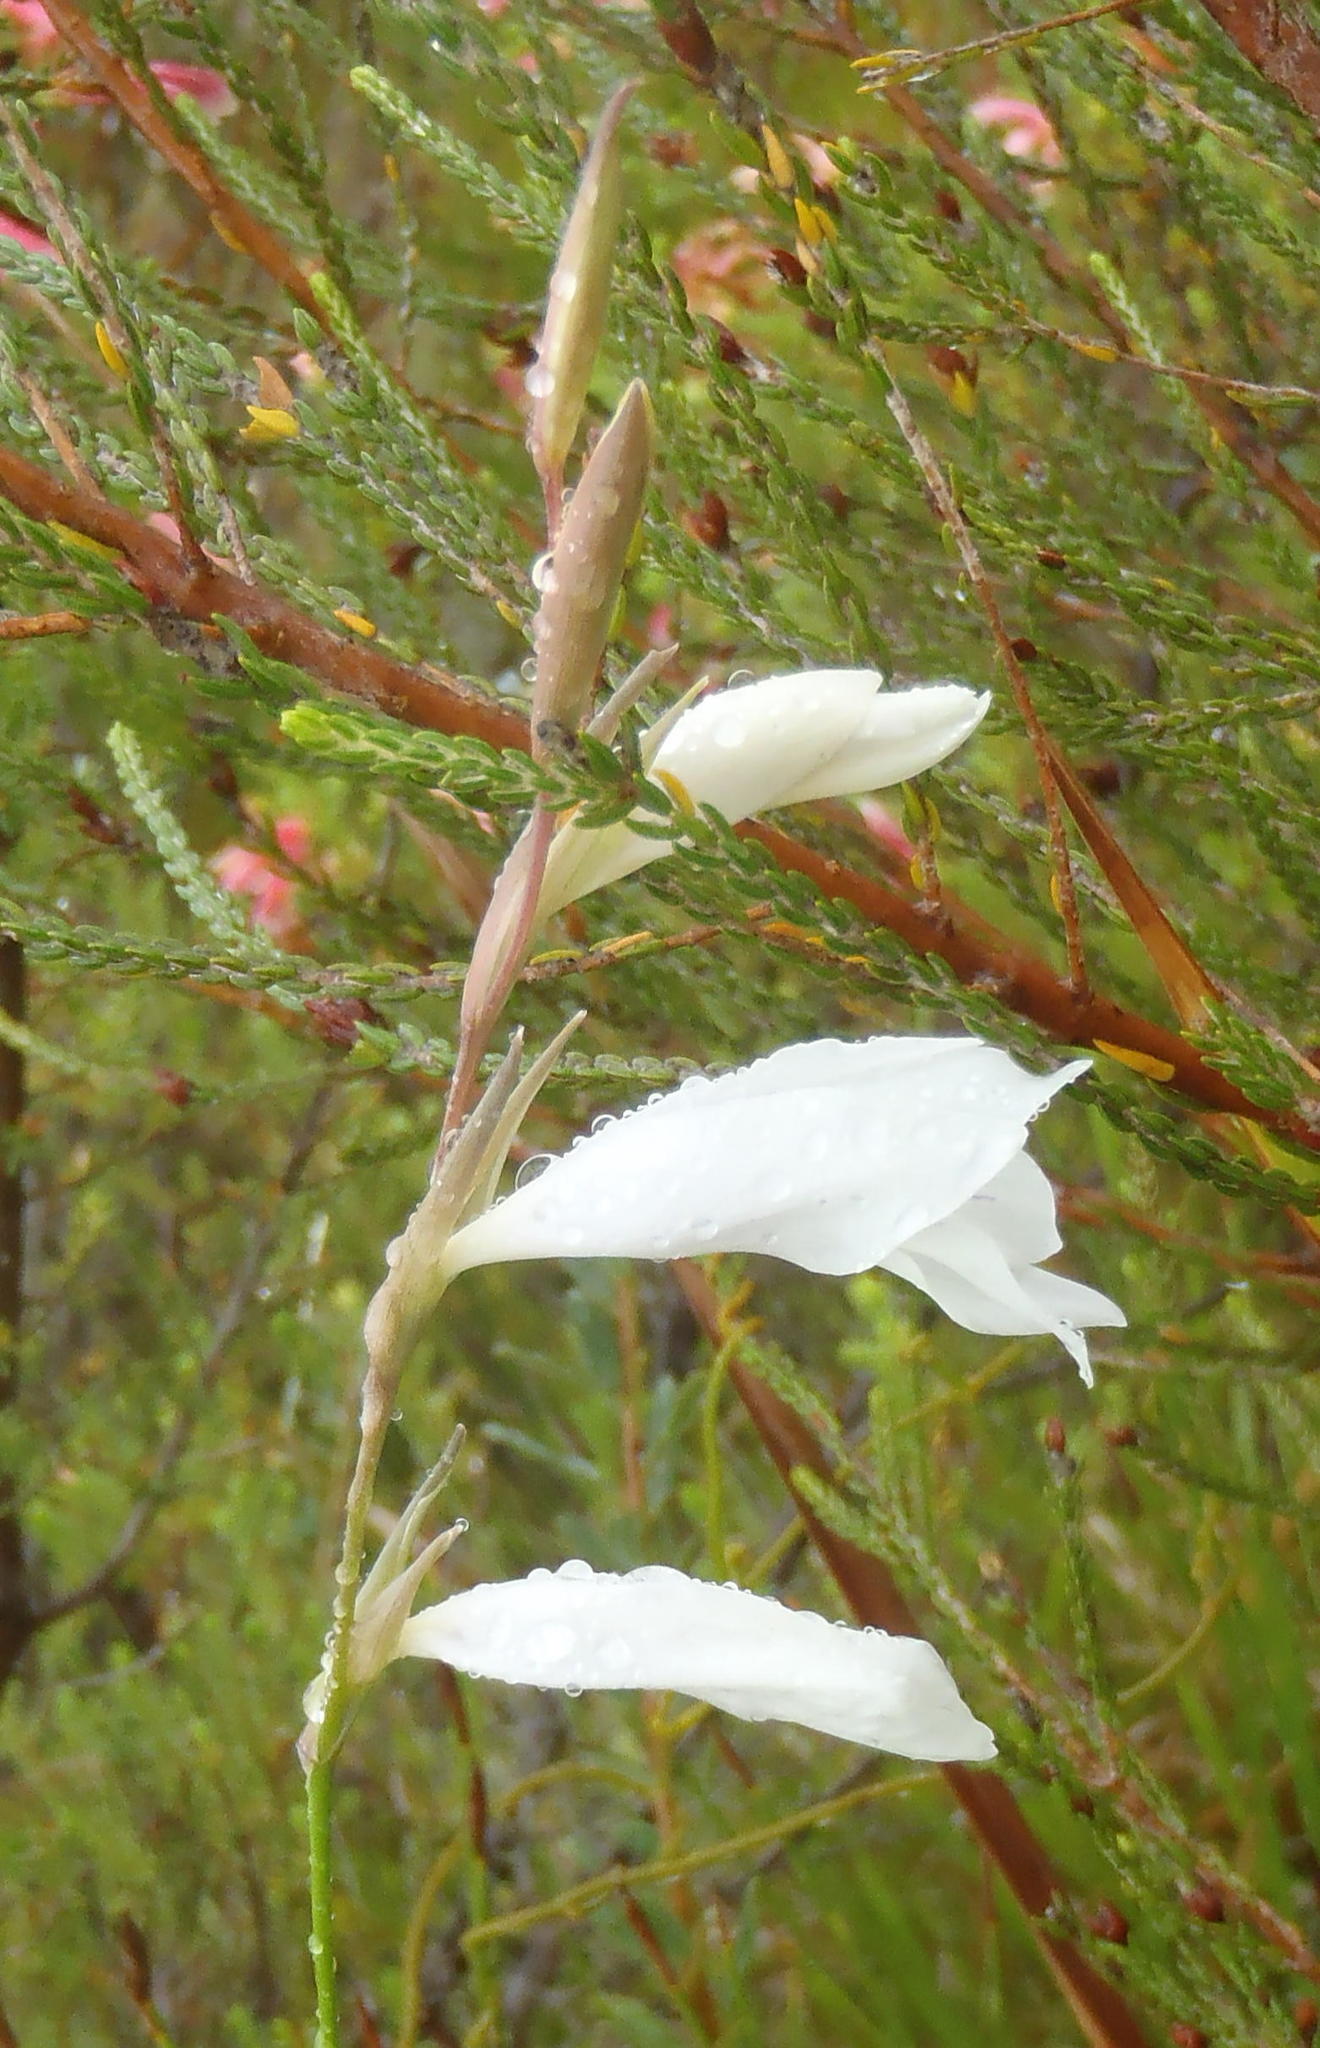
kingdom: Plantae
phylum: Tracheophyta
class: Liliopsida
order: Asparagales
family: Iridaceae
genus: Gladiolus
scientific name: Gladiolus vaginatus
